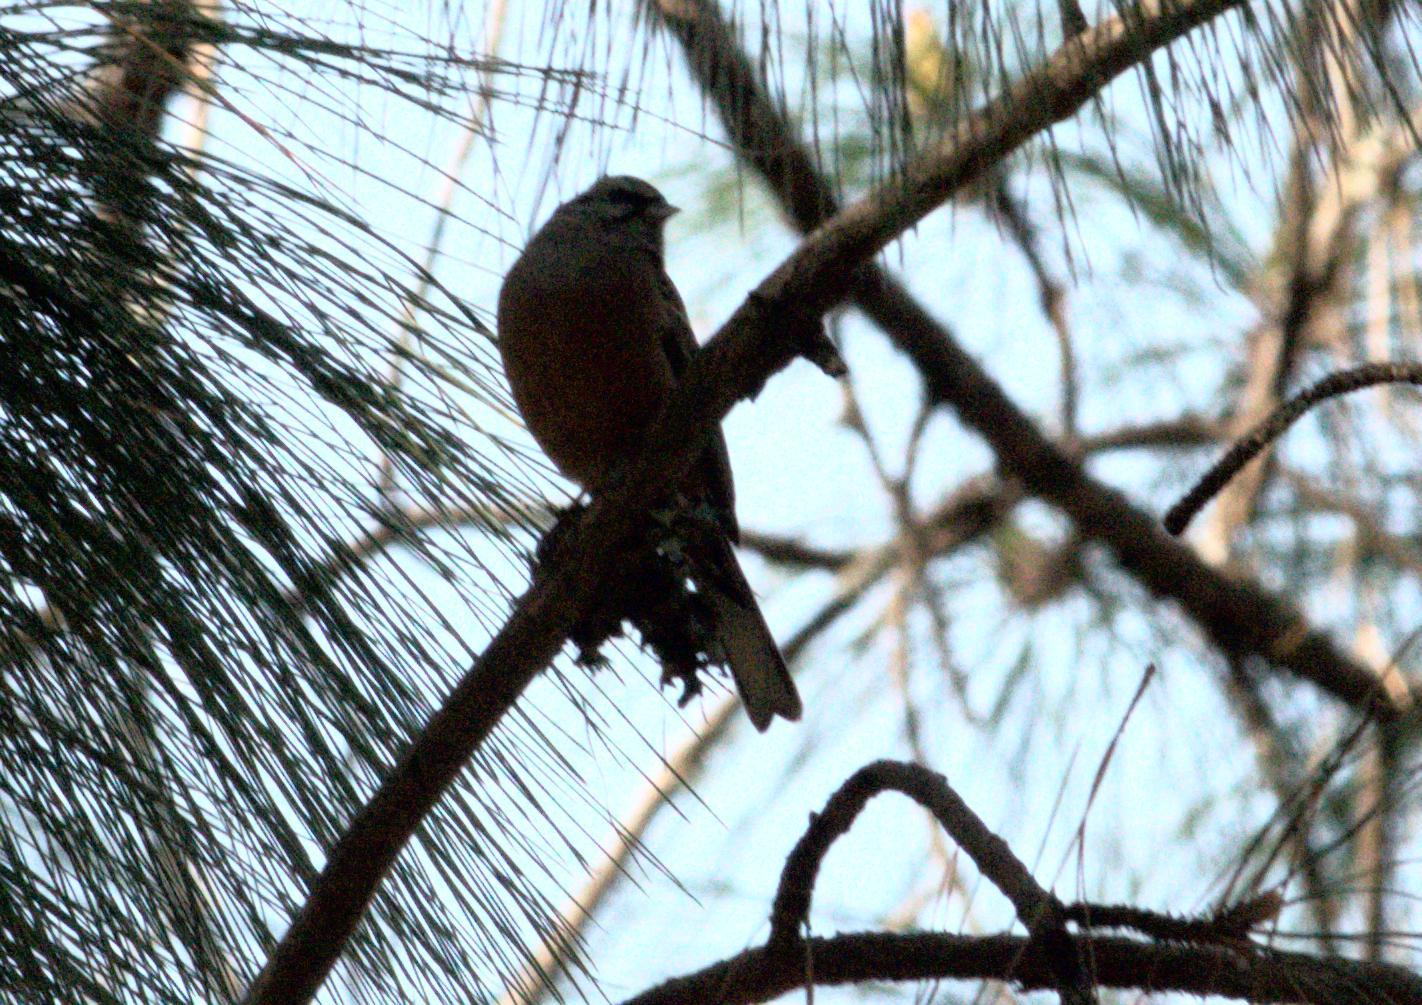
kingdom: Animalia
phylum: Chordata
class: Aves
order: Passeriformes
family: Emberizidae
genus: Emberiza
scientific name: Emberiza cia
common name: Rock bunting
